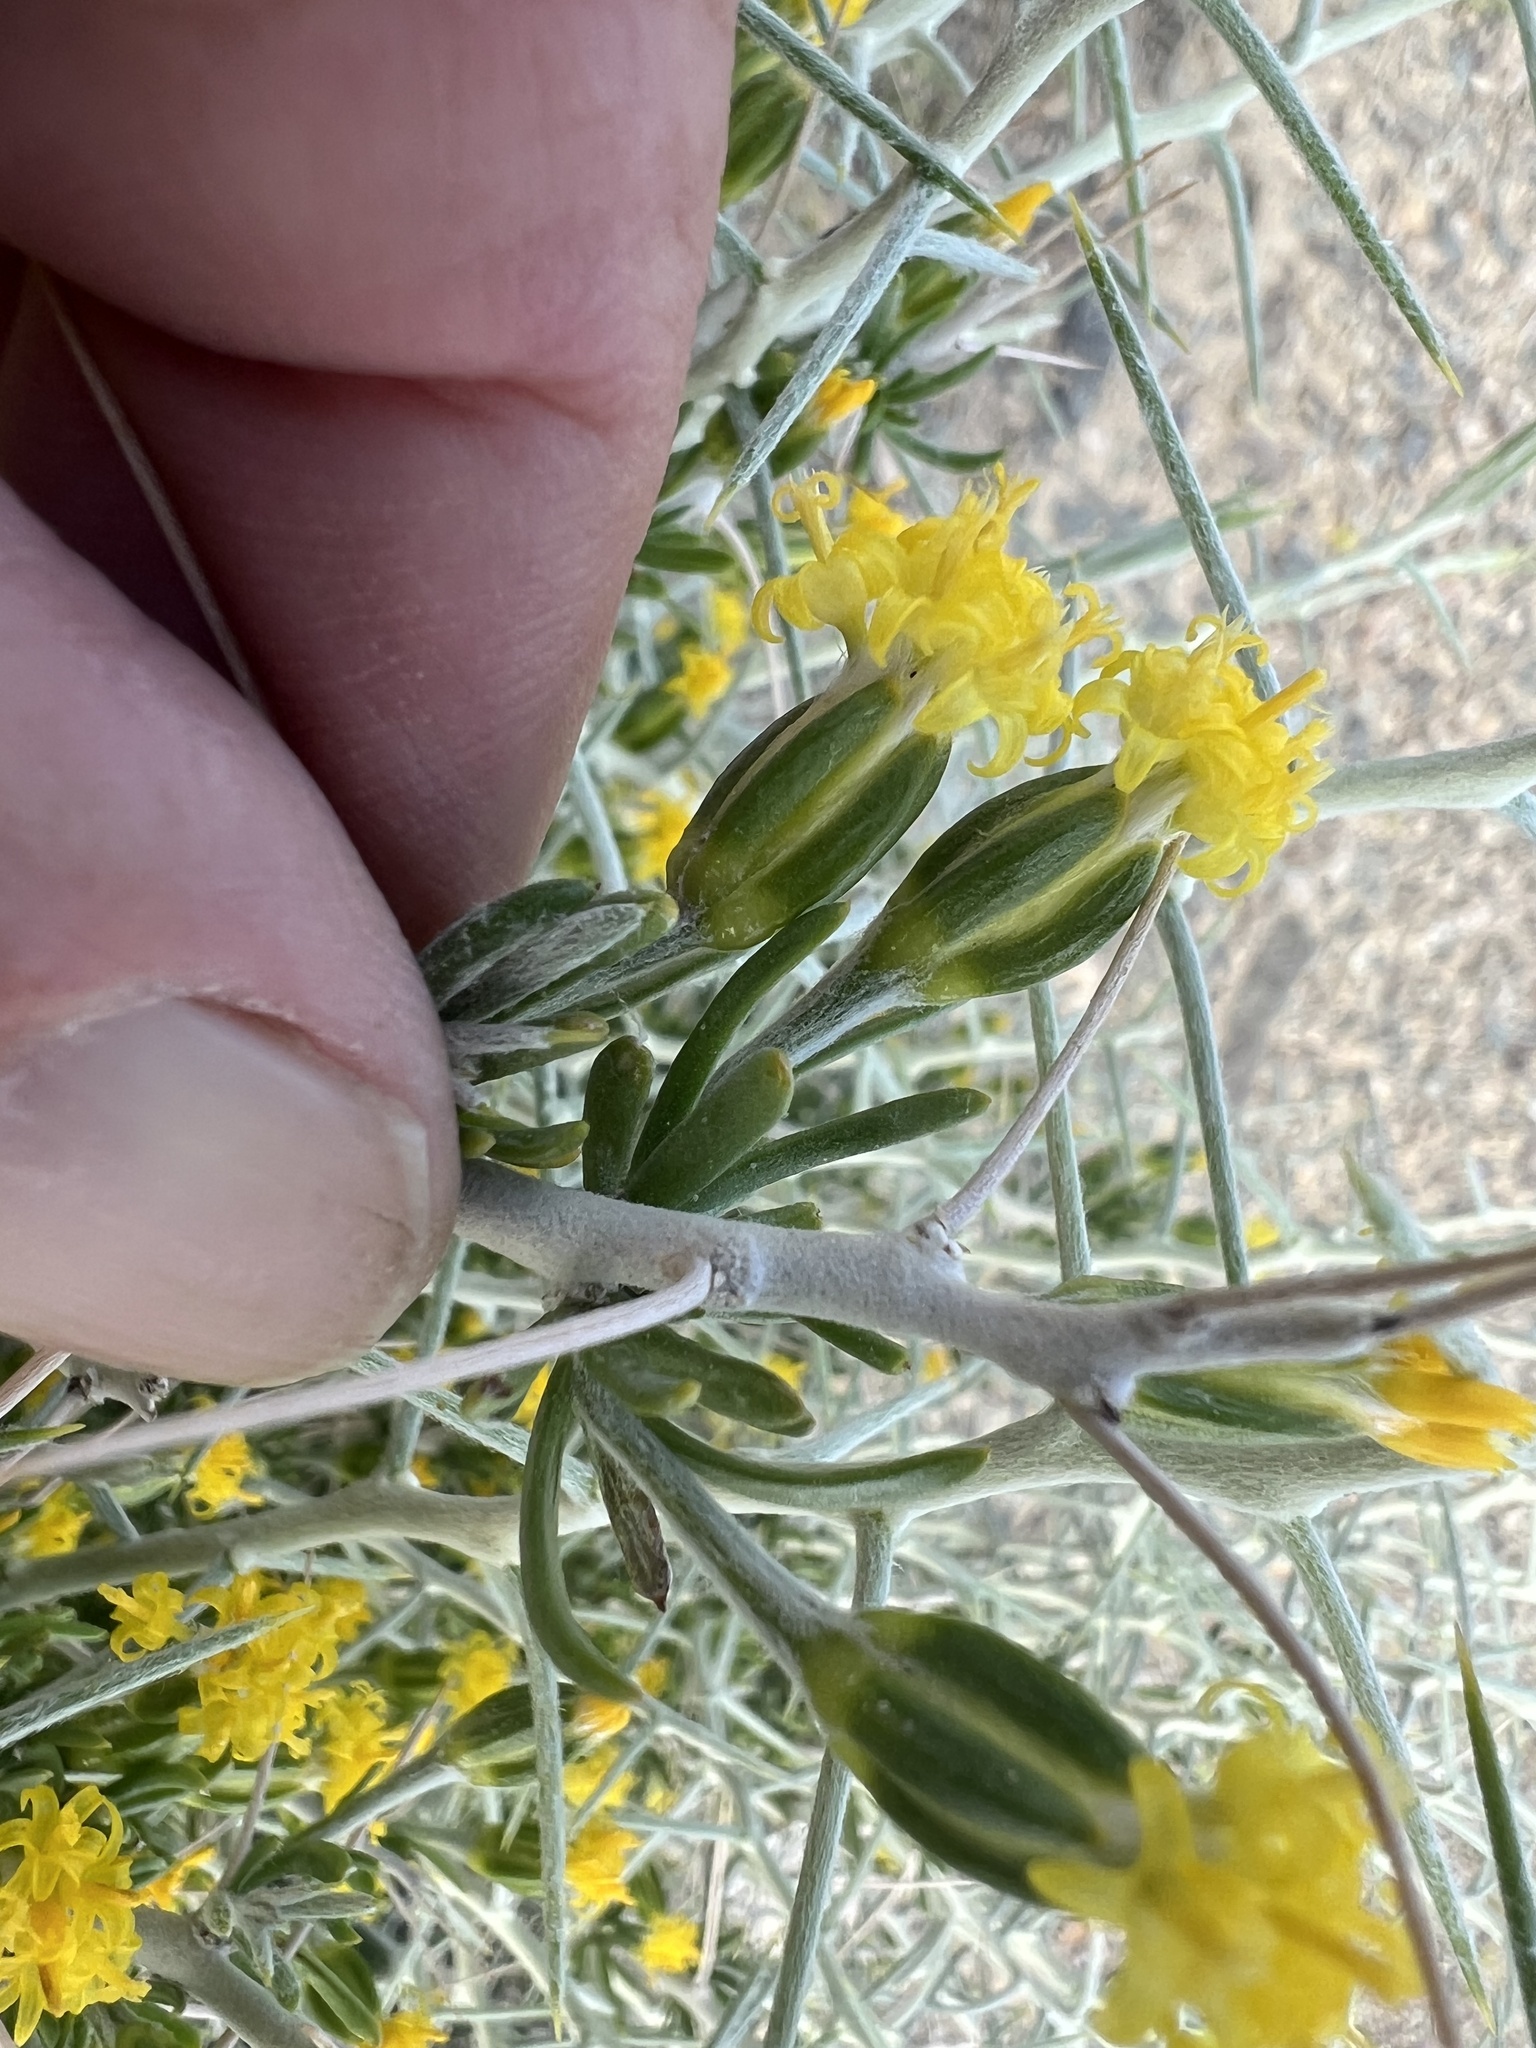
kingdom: Plantae
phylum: Tracheophyta
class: Magnoliopsida
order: Asterales
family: Asteraceae
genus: Tetradymia
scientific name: Tetradymia axillaris
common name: Long-spine horsebrush
